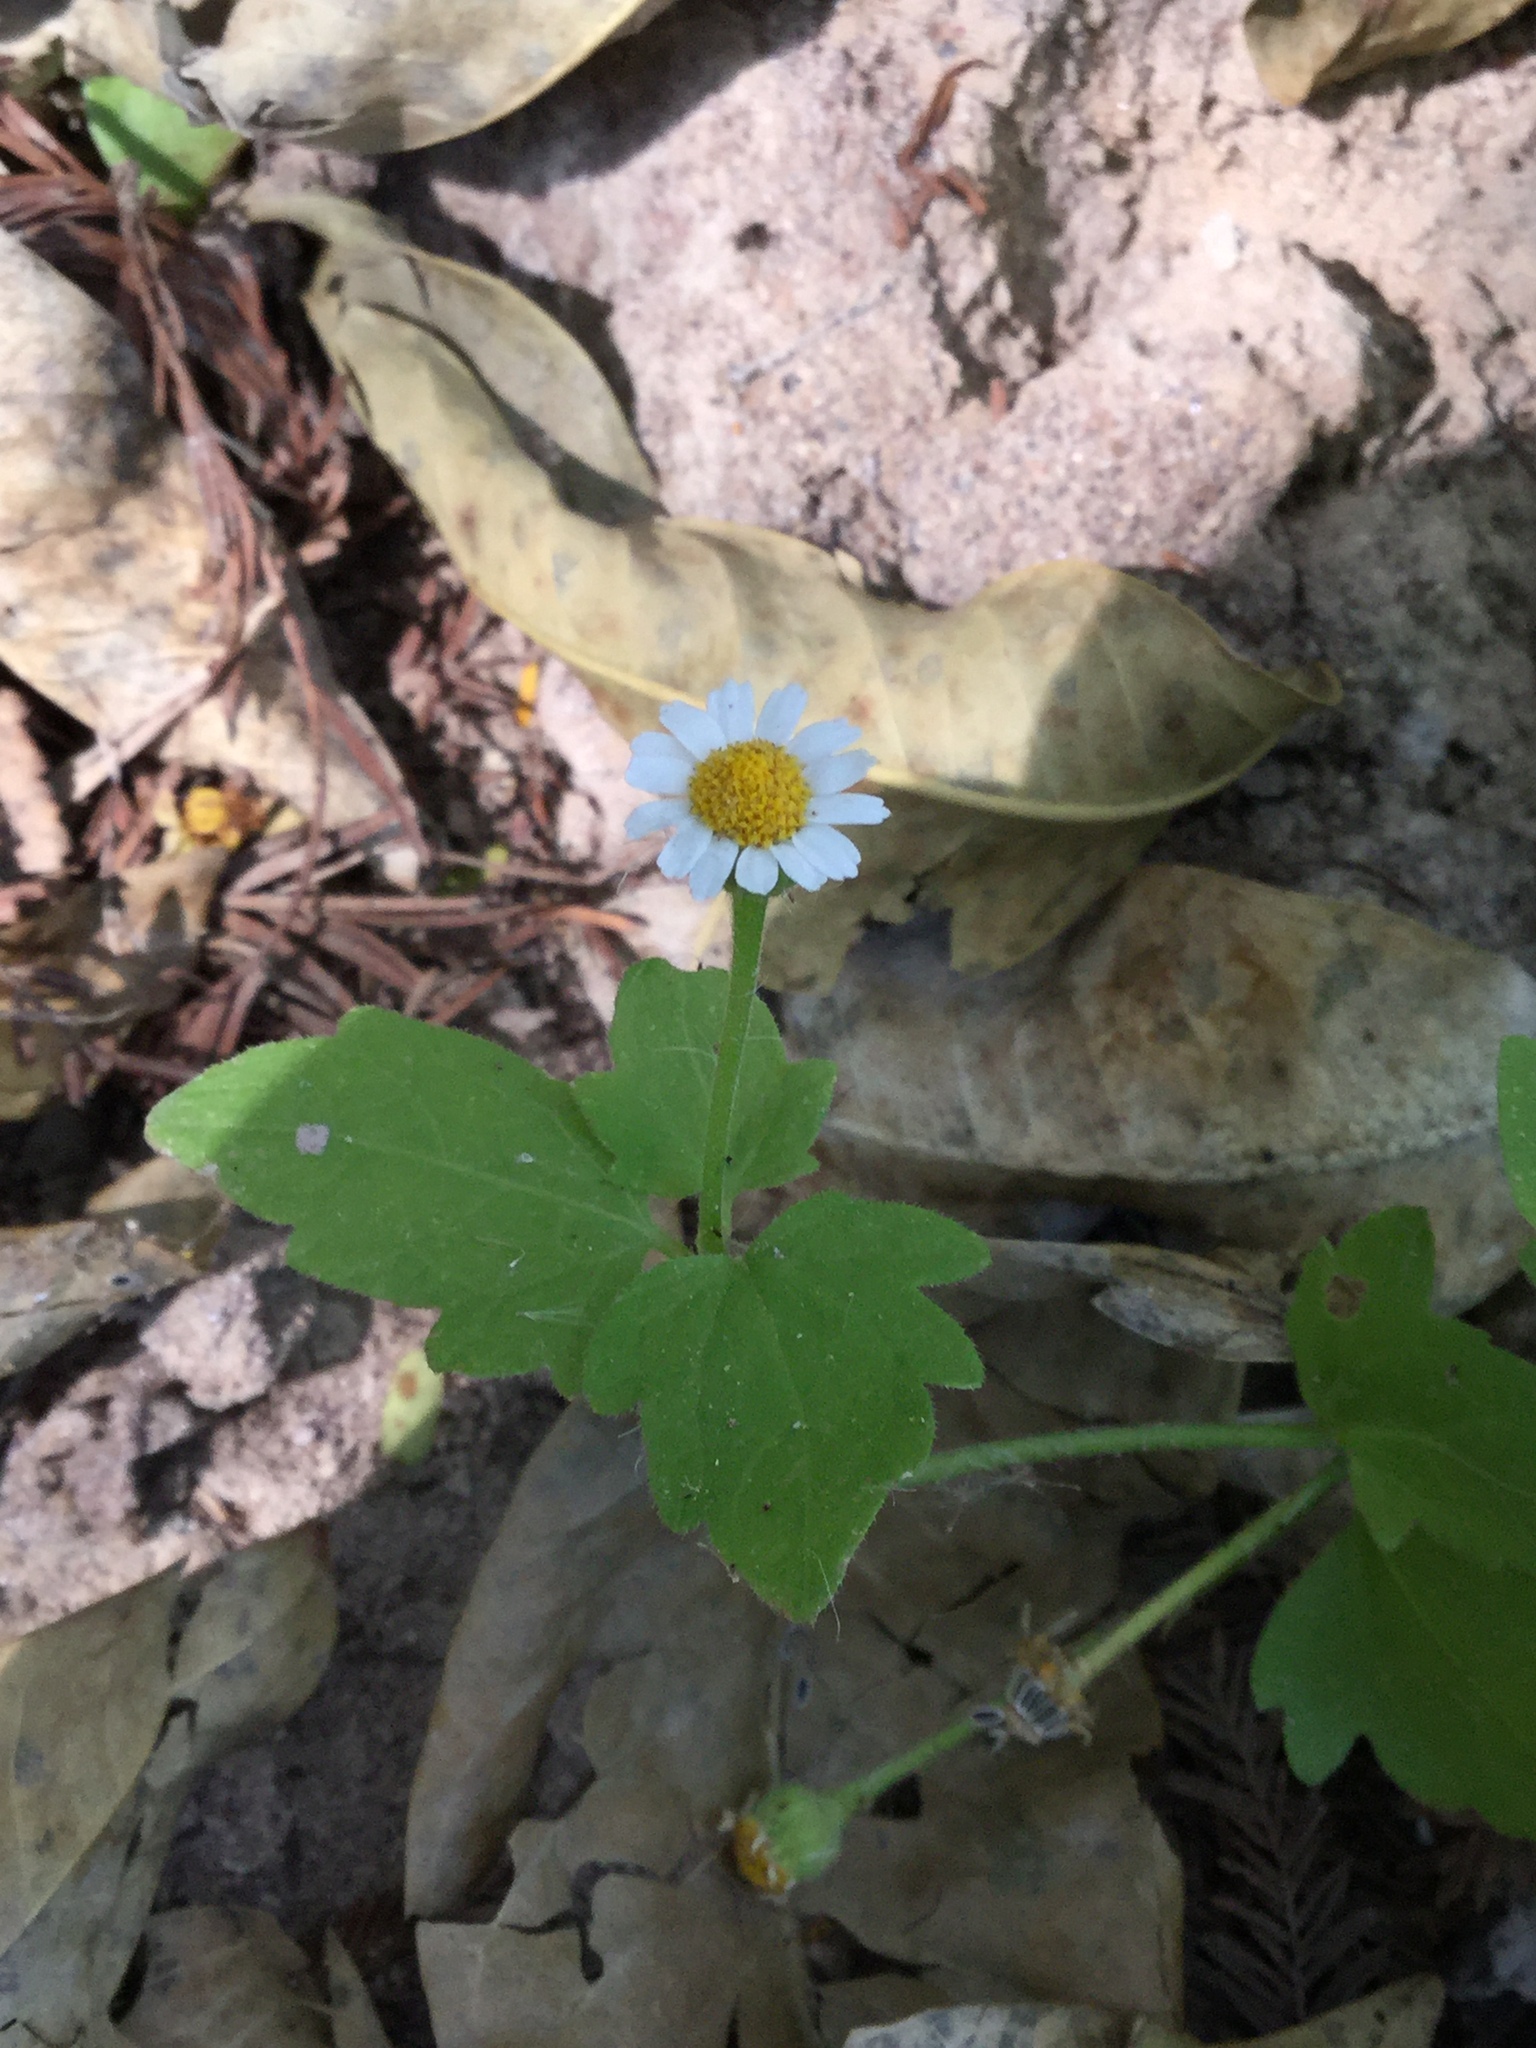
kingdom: Plantae
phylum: Tracheophyta
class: Magnoliopsida
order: Asterales
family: Asteraceae
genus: Galinsogeopsis
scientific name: Galinsogeopsis spilanthoides
